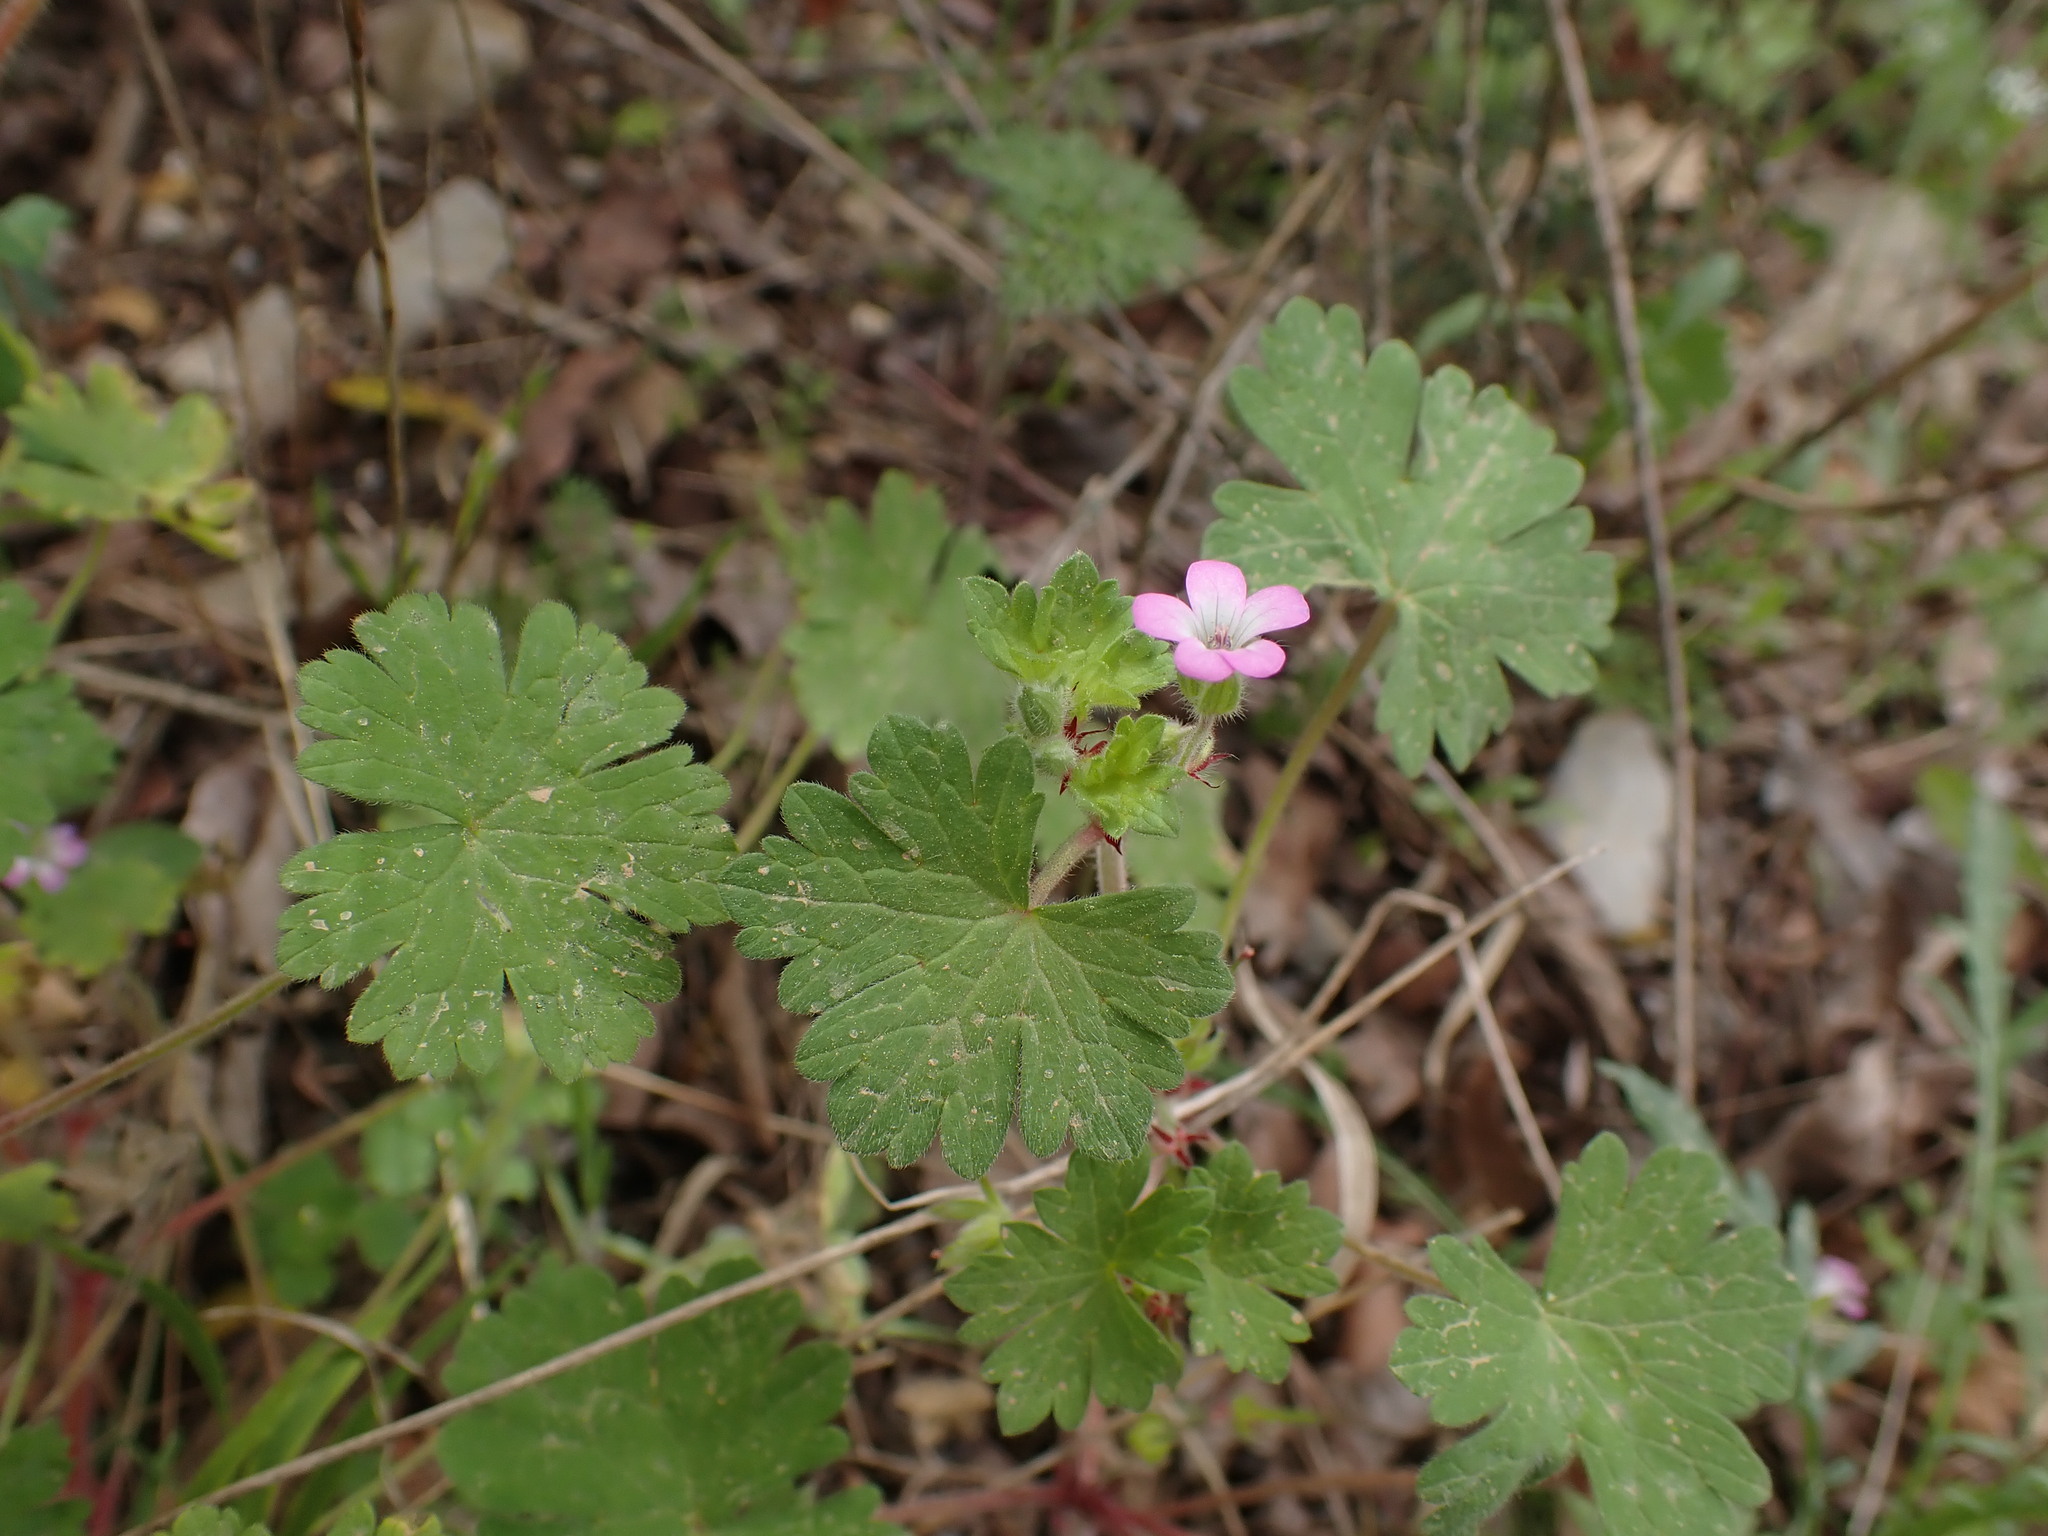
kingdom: Plantae
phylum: Tracheophyta
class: Magnoliopsida
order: Geraniales
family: Geraniaceae
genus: Geranium
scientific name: Geranium rotundifolium
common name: Round-leaved crane's-bill
